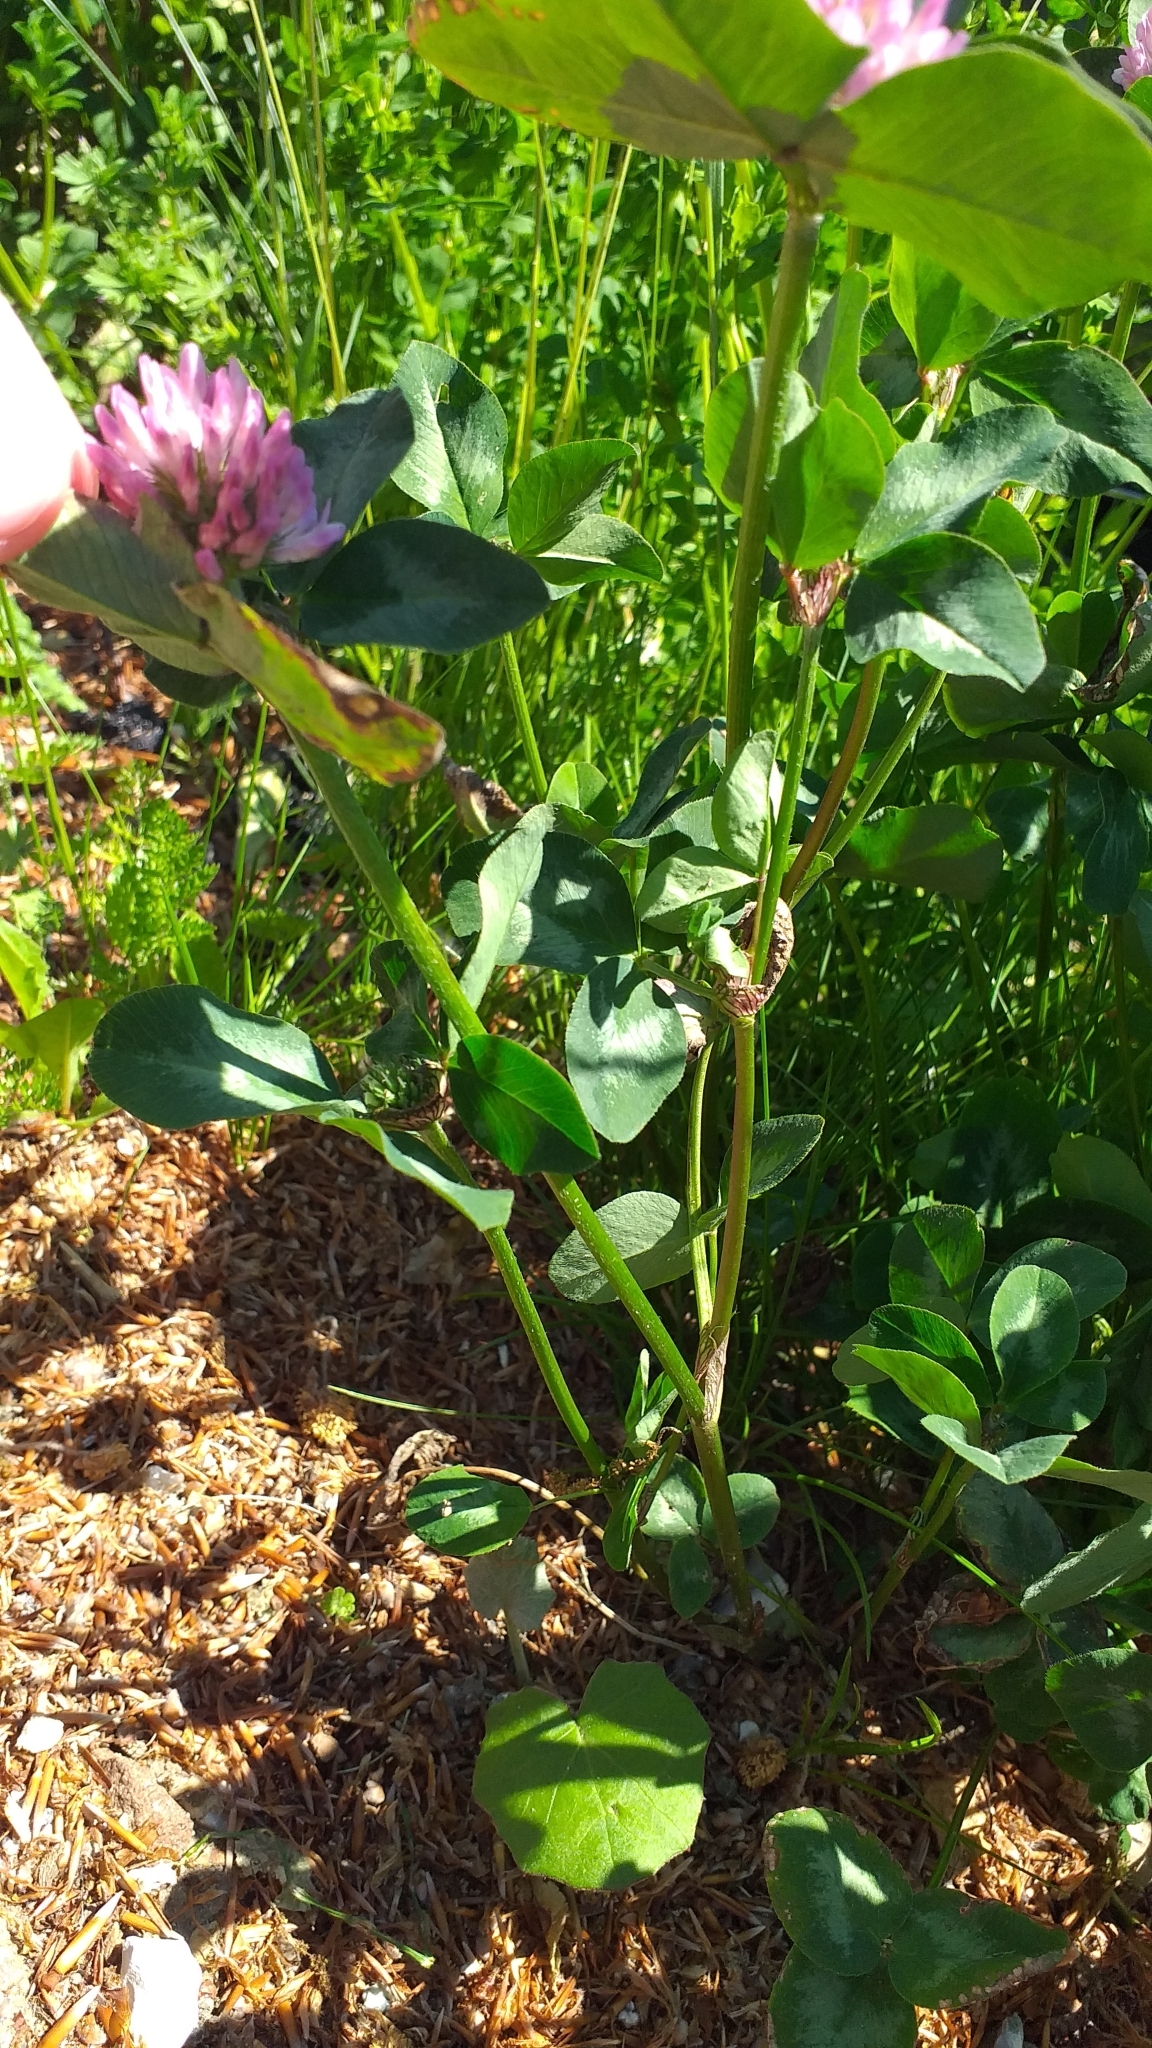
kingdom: Plantae
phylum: Tracheophyta
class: Magnoliopsida
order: Fabales
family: Fabaceae
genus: Trifolium
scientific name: Trifolium pratense
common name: Red clover
